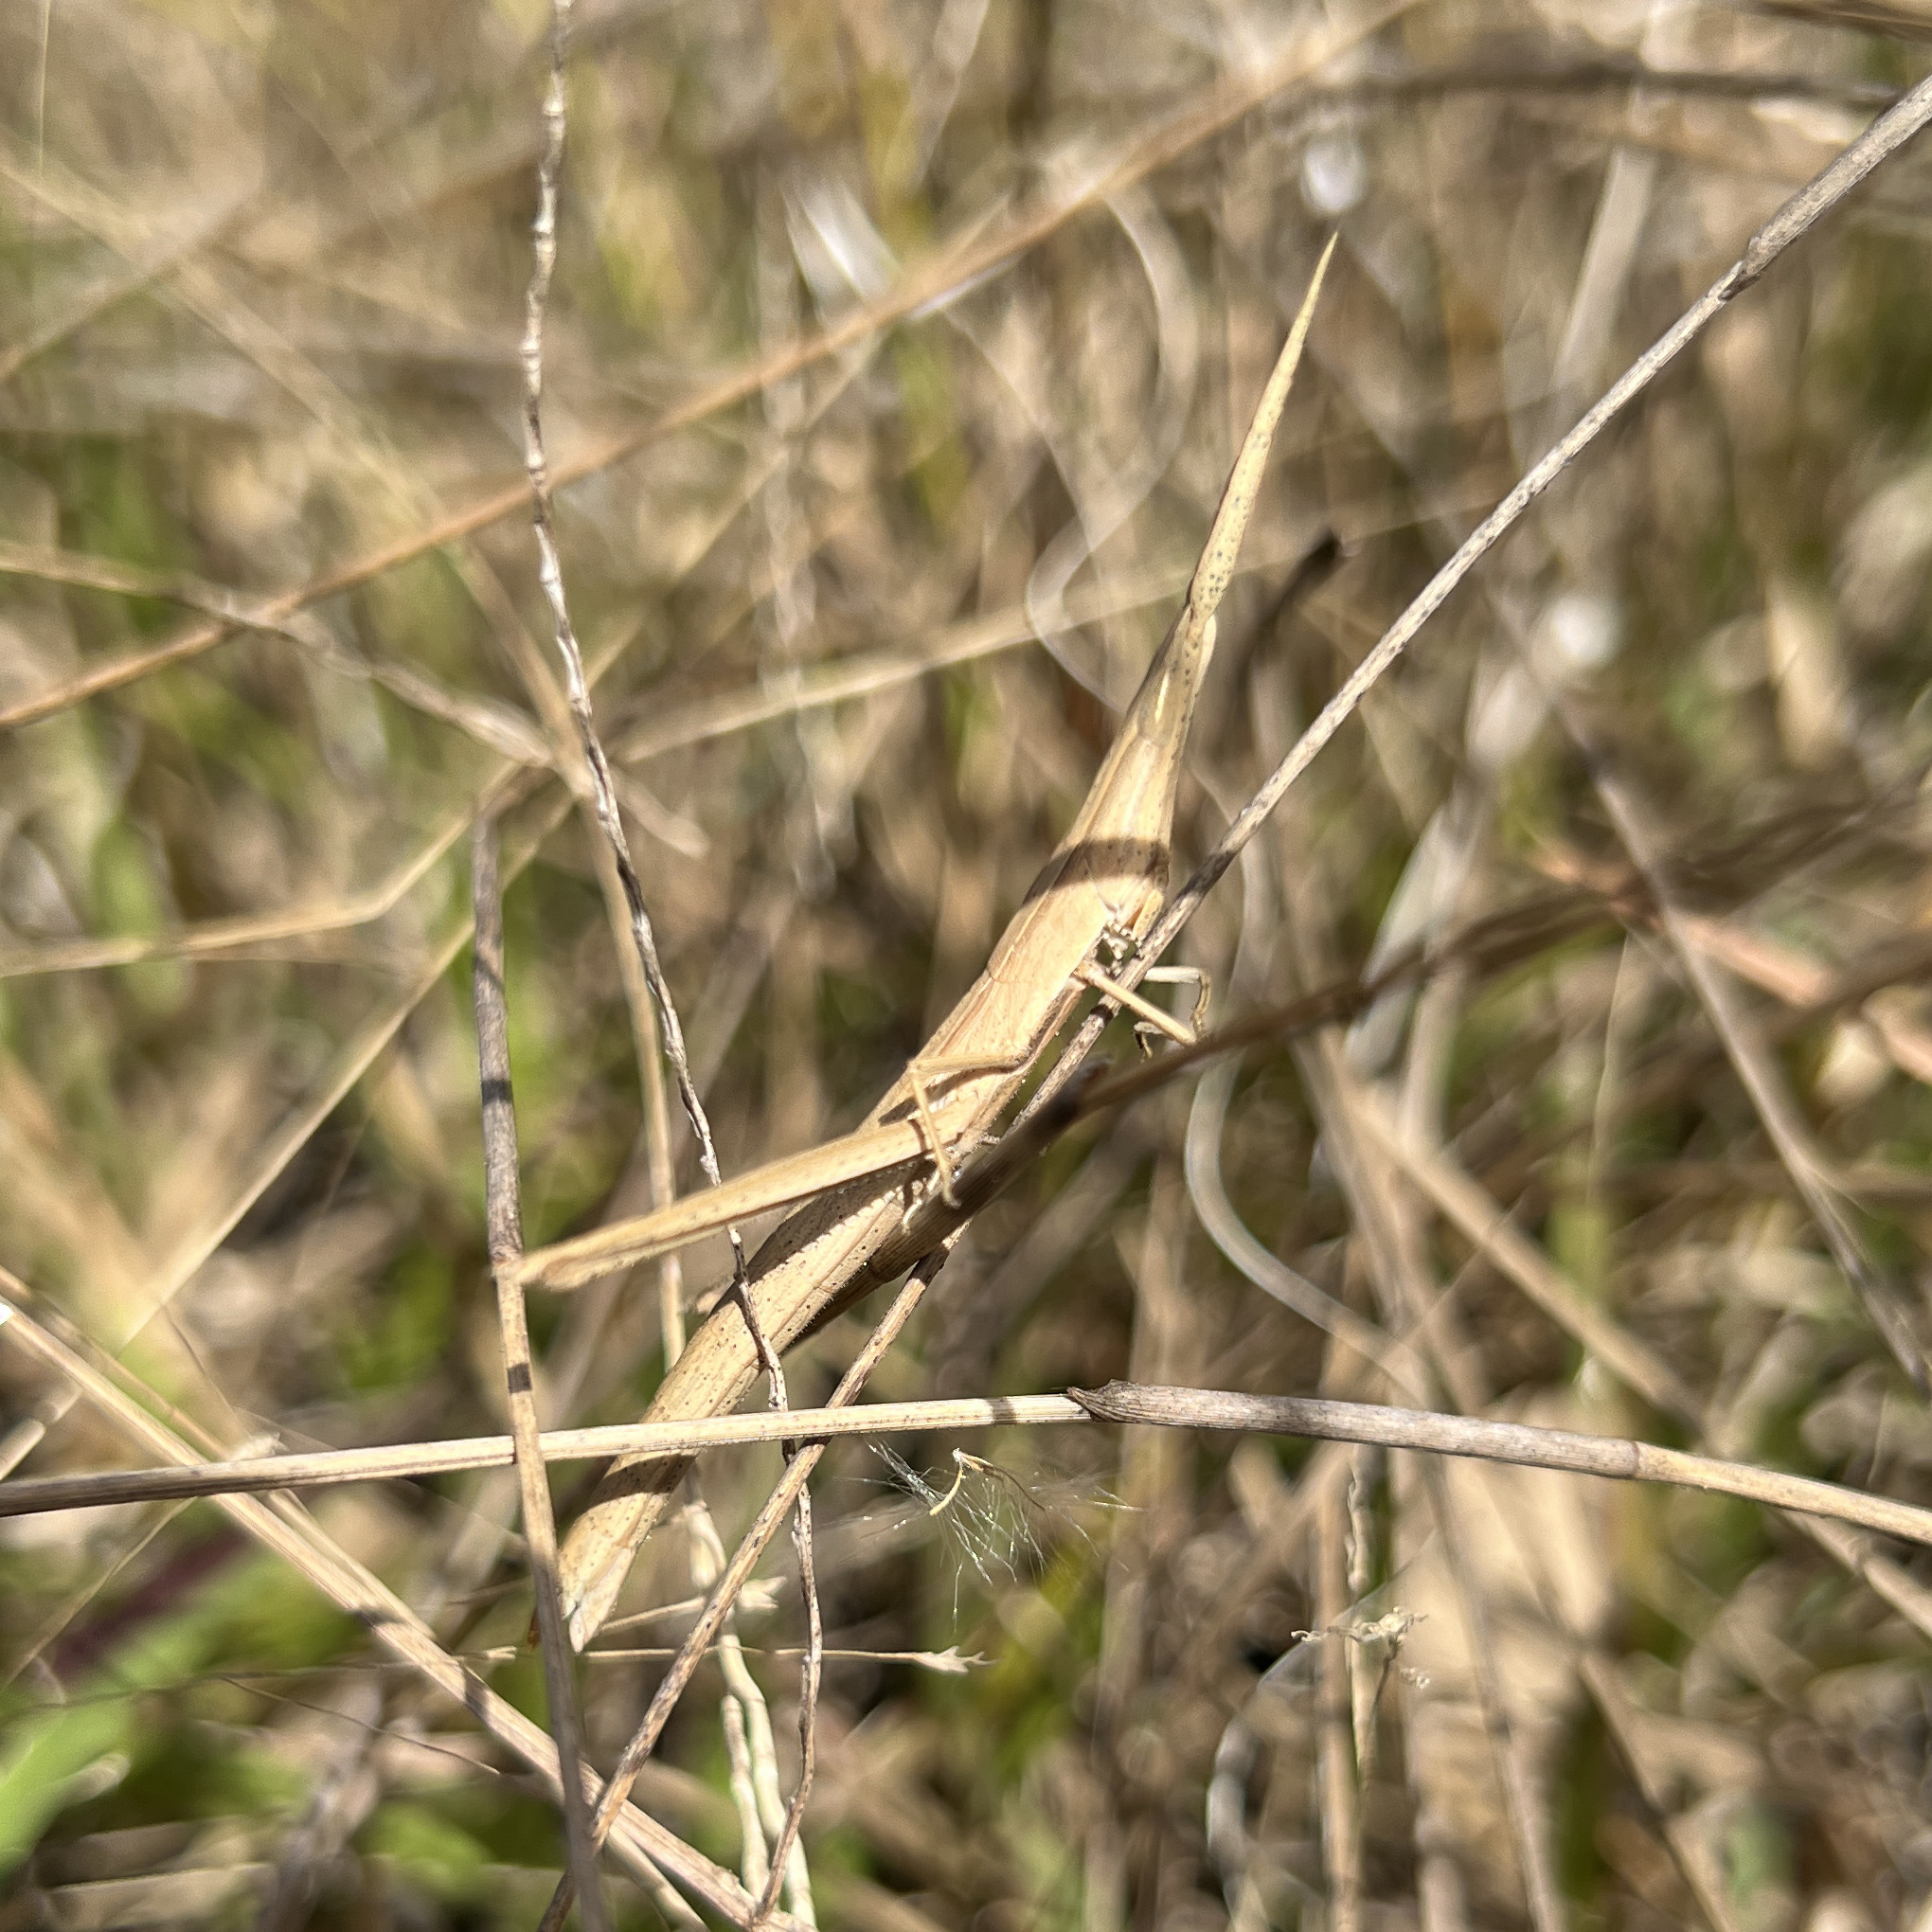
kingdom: Animalia
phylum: Arthropoda
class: Insecta
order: Orthoptera
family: Acrididae
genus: Achurum
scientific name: Achurum carinatum
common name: Long-headed toothpick grasshopper
